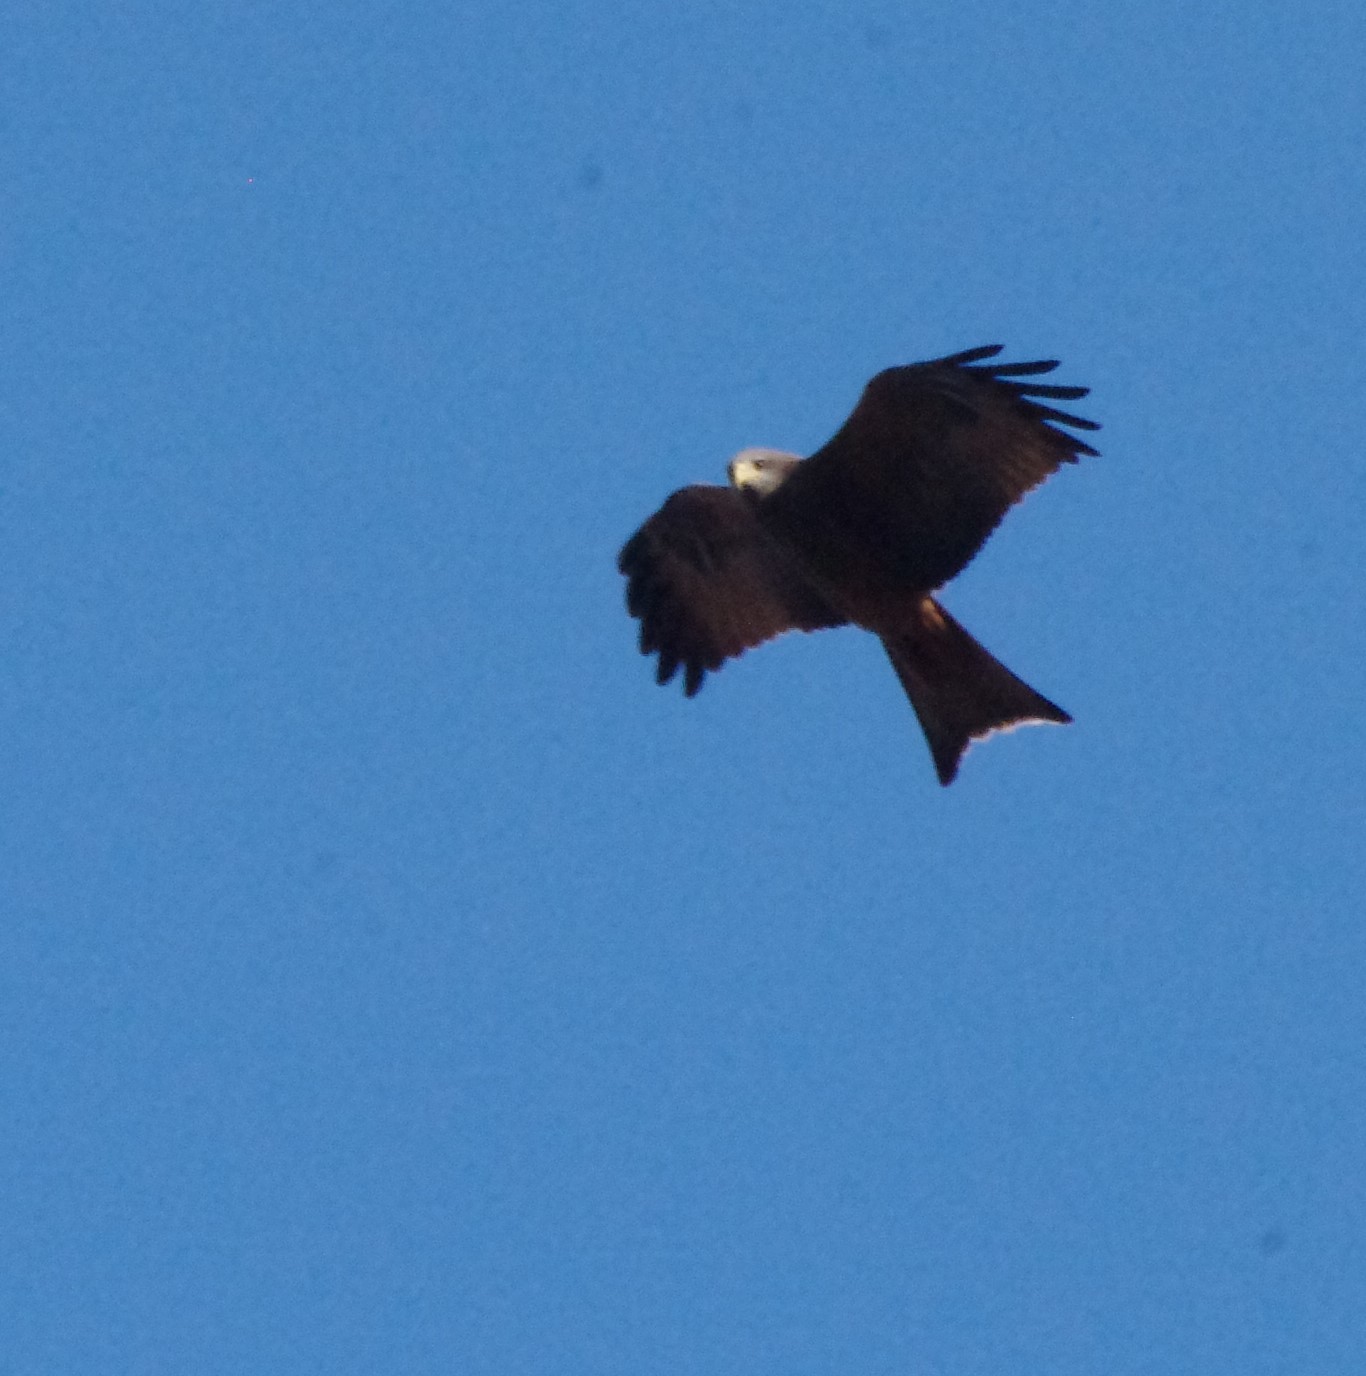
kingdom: Animalia
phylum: Chordata
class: Aves
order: Accipitriformes
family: Accipitridae
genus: Milvus
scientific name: Milvus migrans
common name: Black kite
